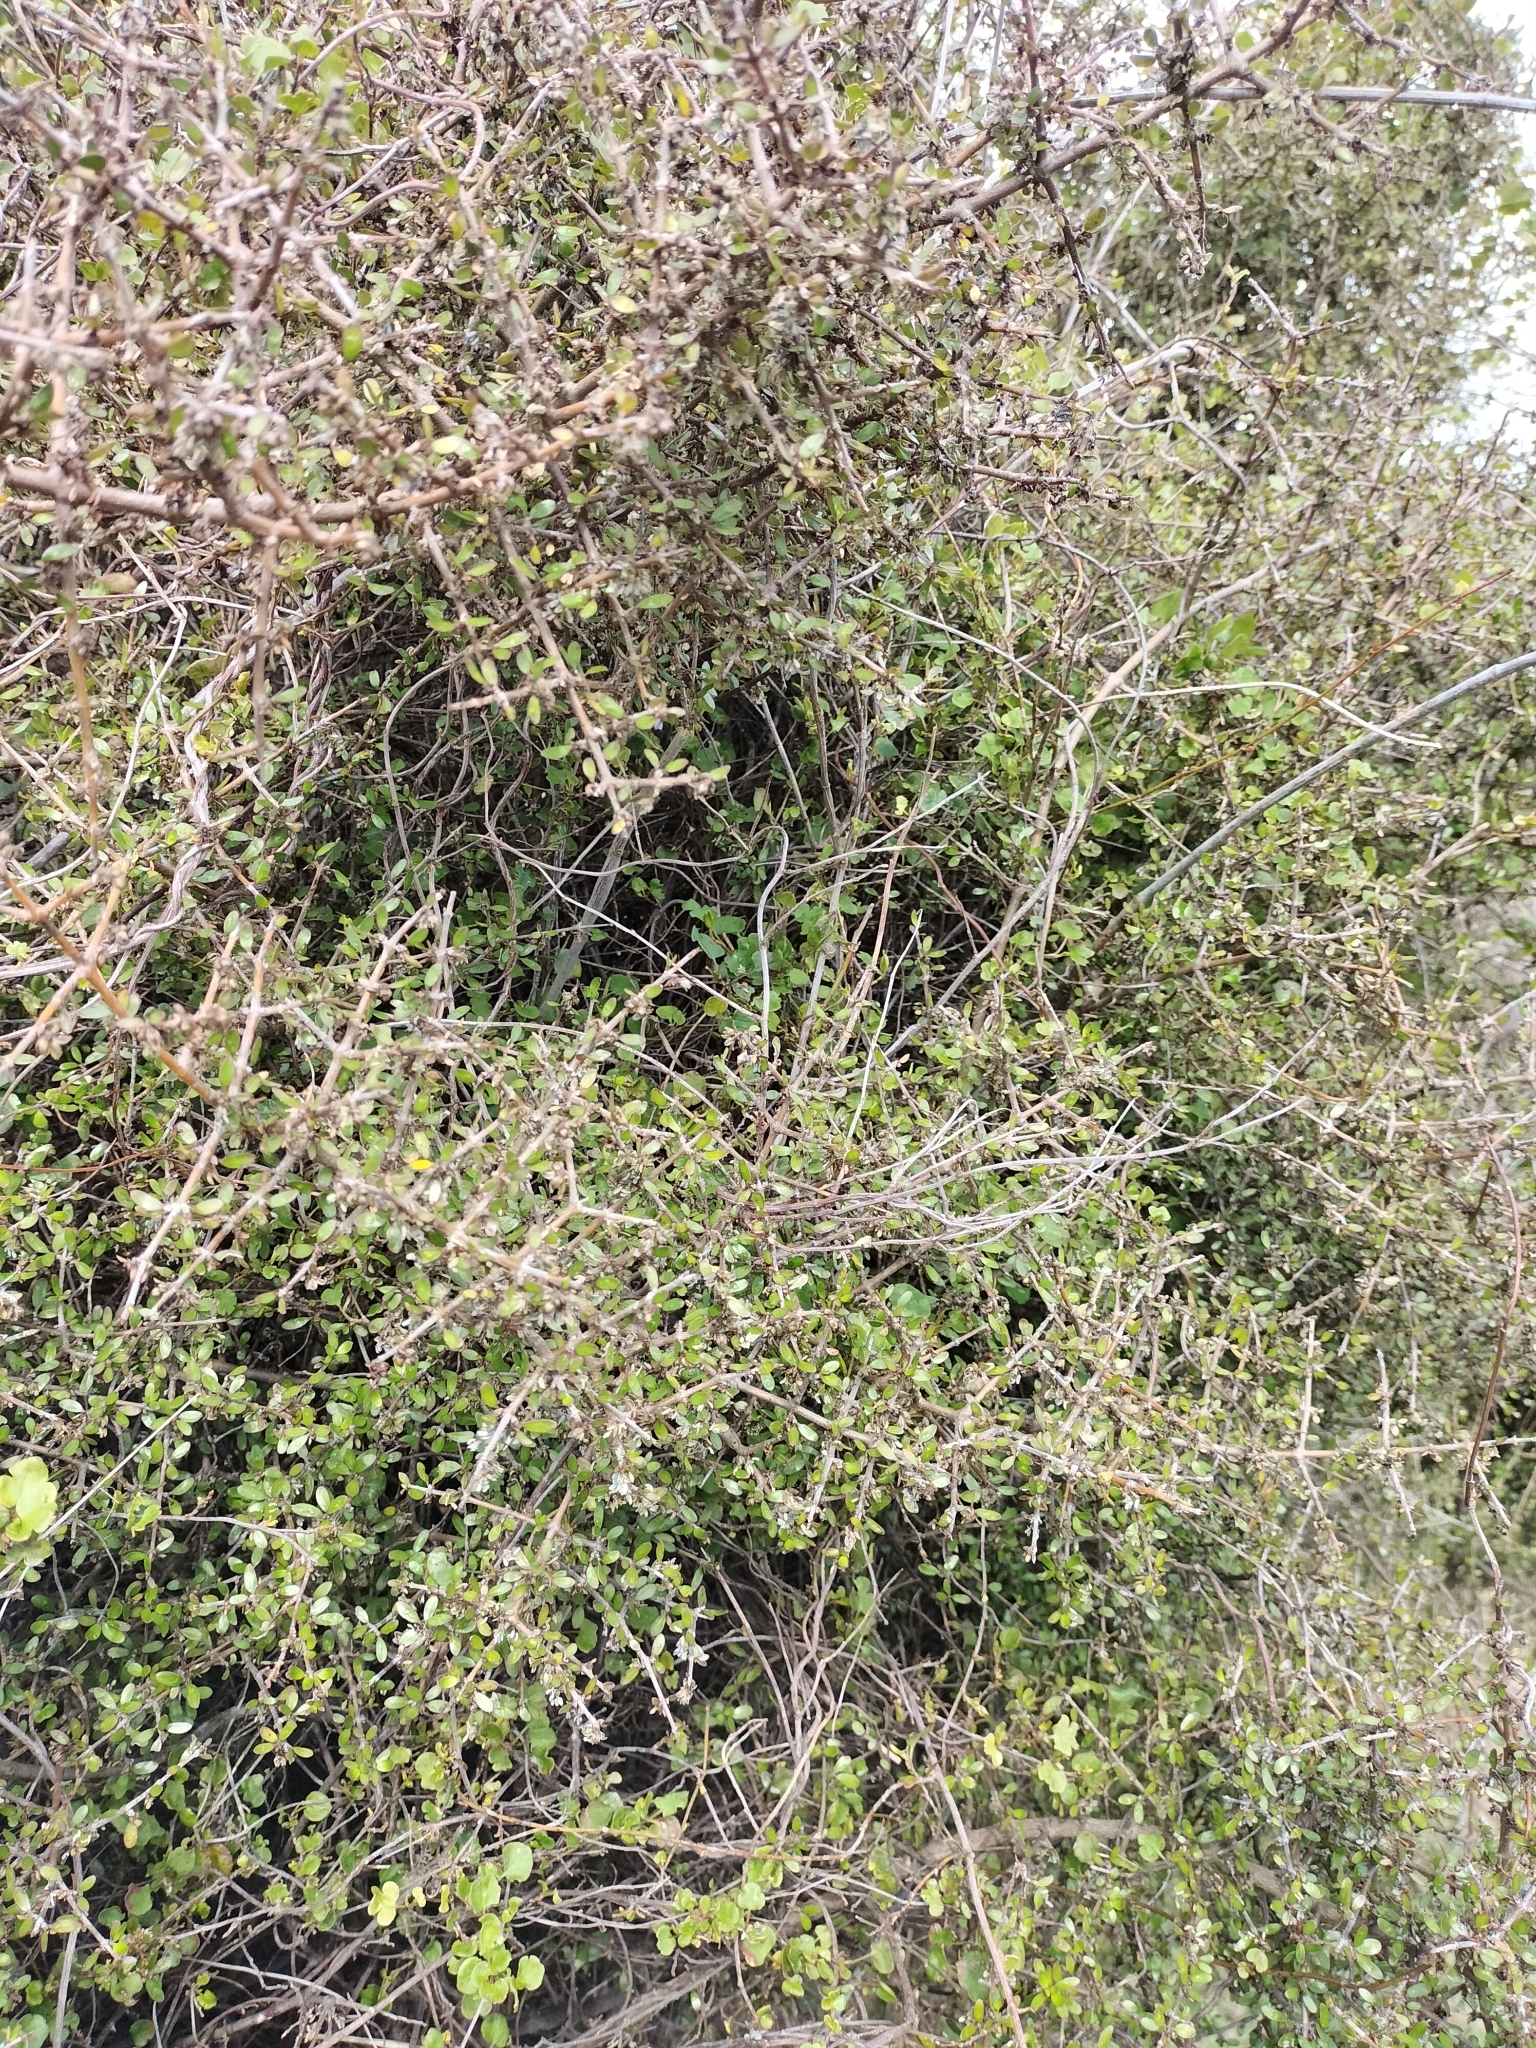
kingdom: Plantae
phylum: Tracheophyta
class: Magnoliopsida
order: Gentianales
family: Rubiaceae
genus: Coprosma
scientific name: Coprosma propinqua
